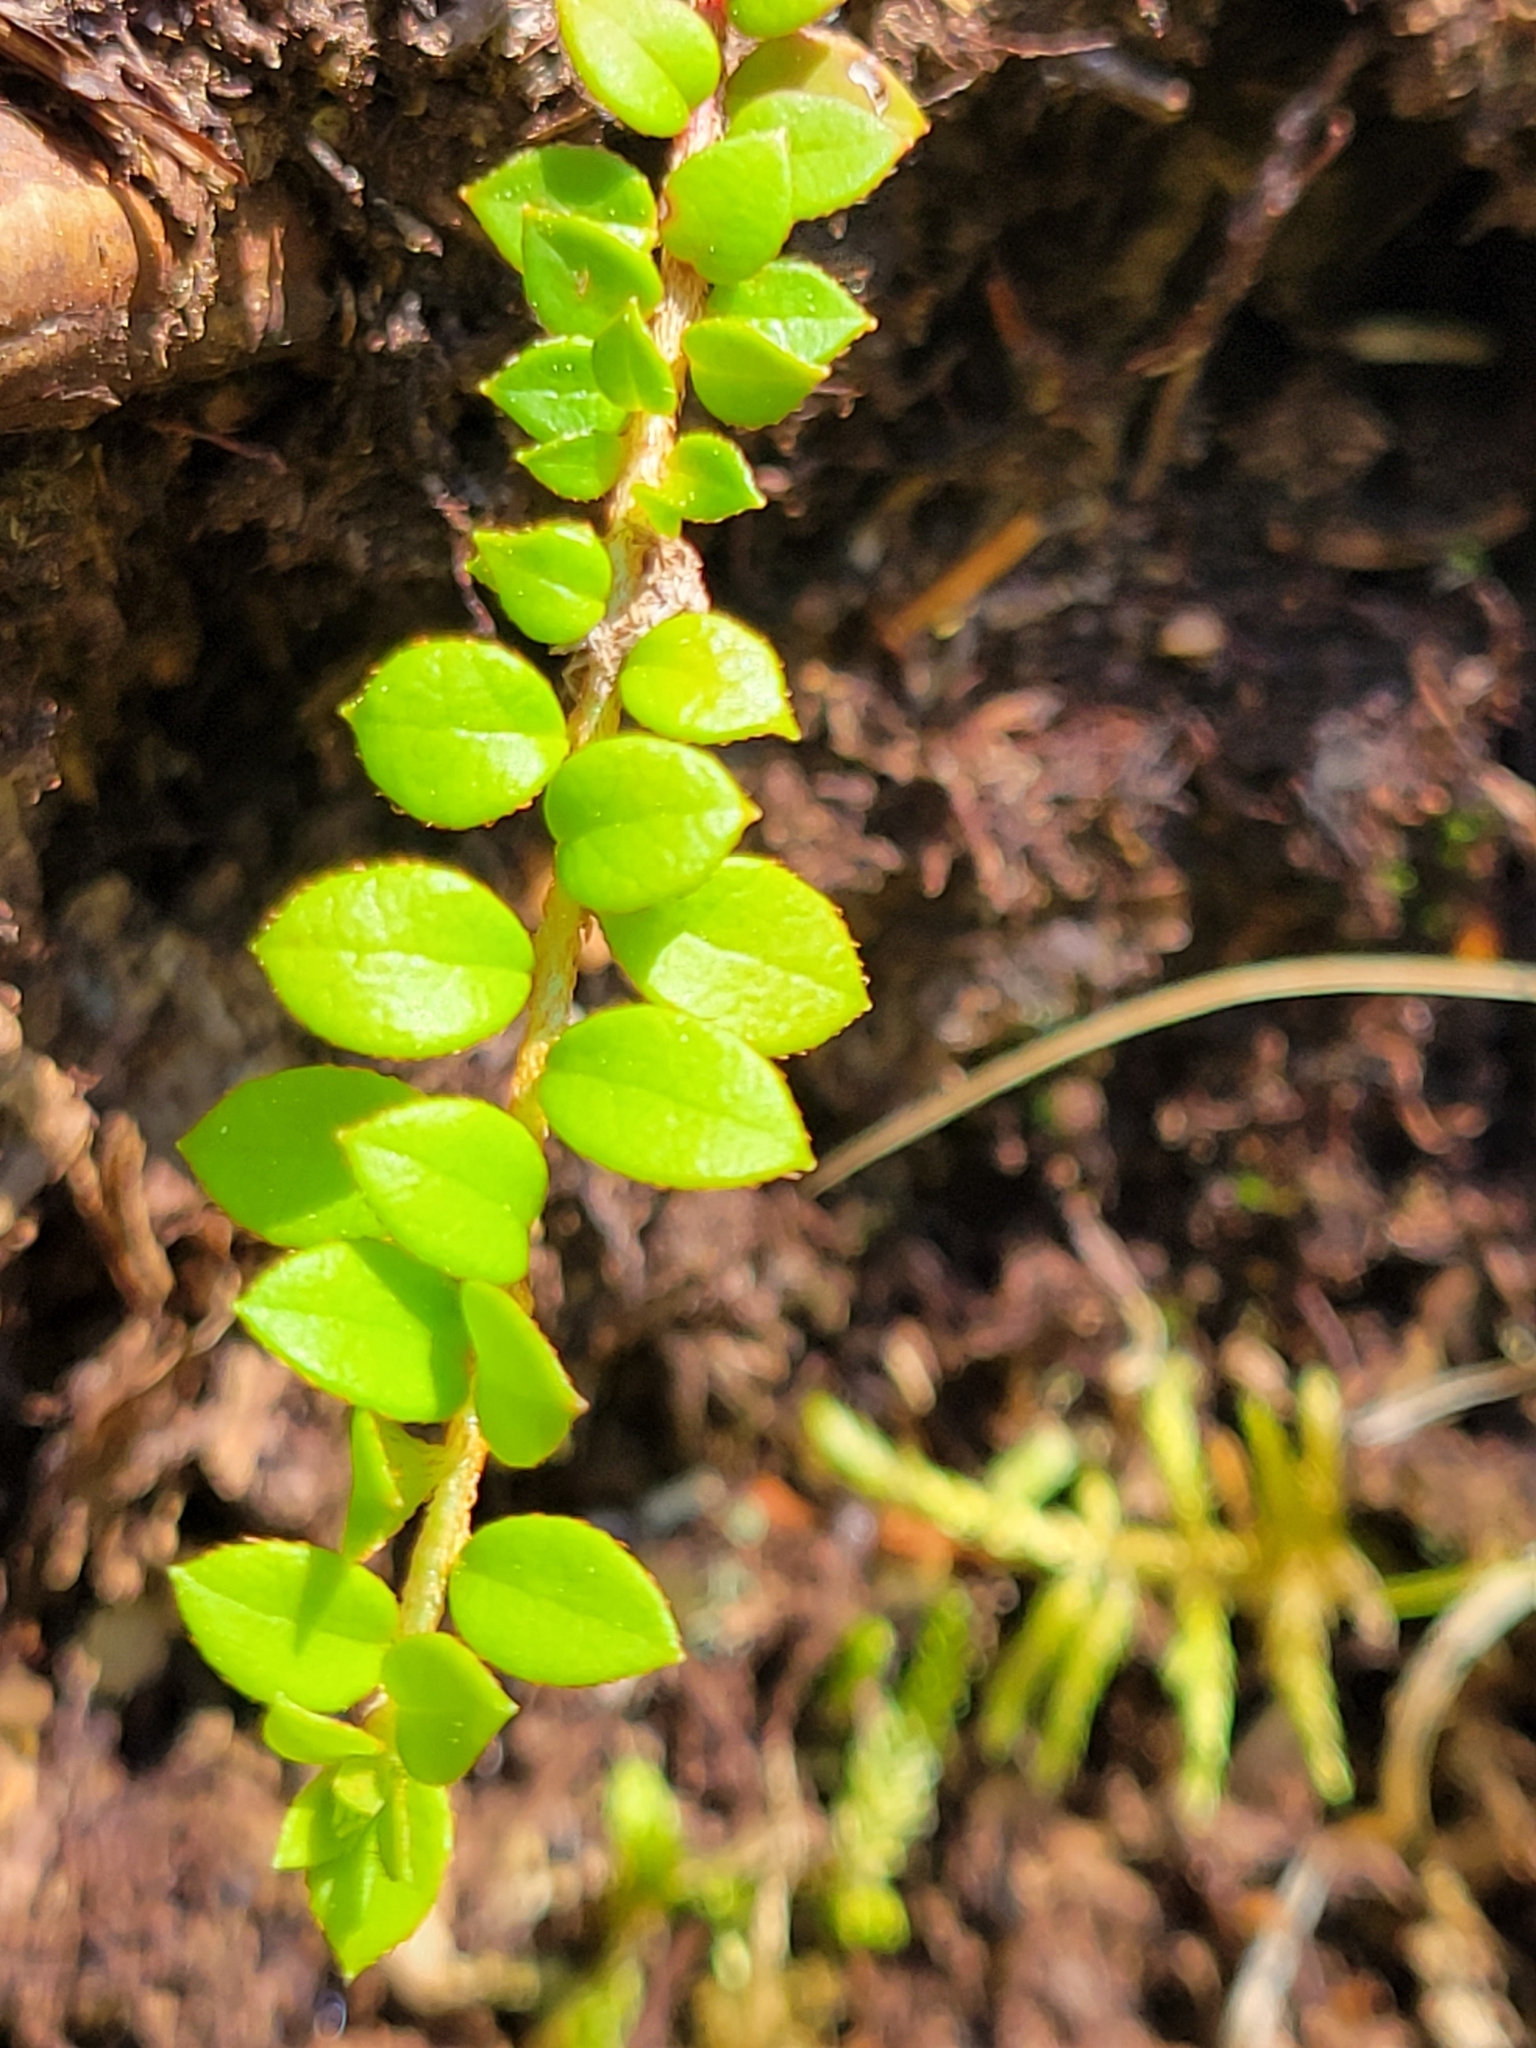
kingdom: Plantae
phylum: Tracheophyta
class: Magnoliopsida
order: Ericales
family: Ericaceae
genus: Gaultheria
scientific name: Gaultheria hispidula
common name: Cancer wintergreen
